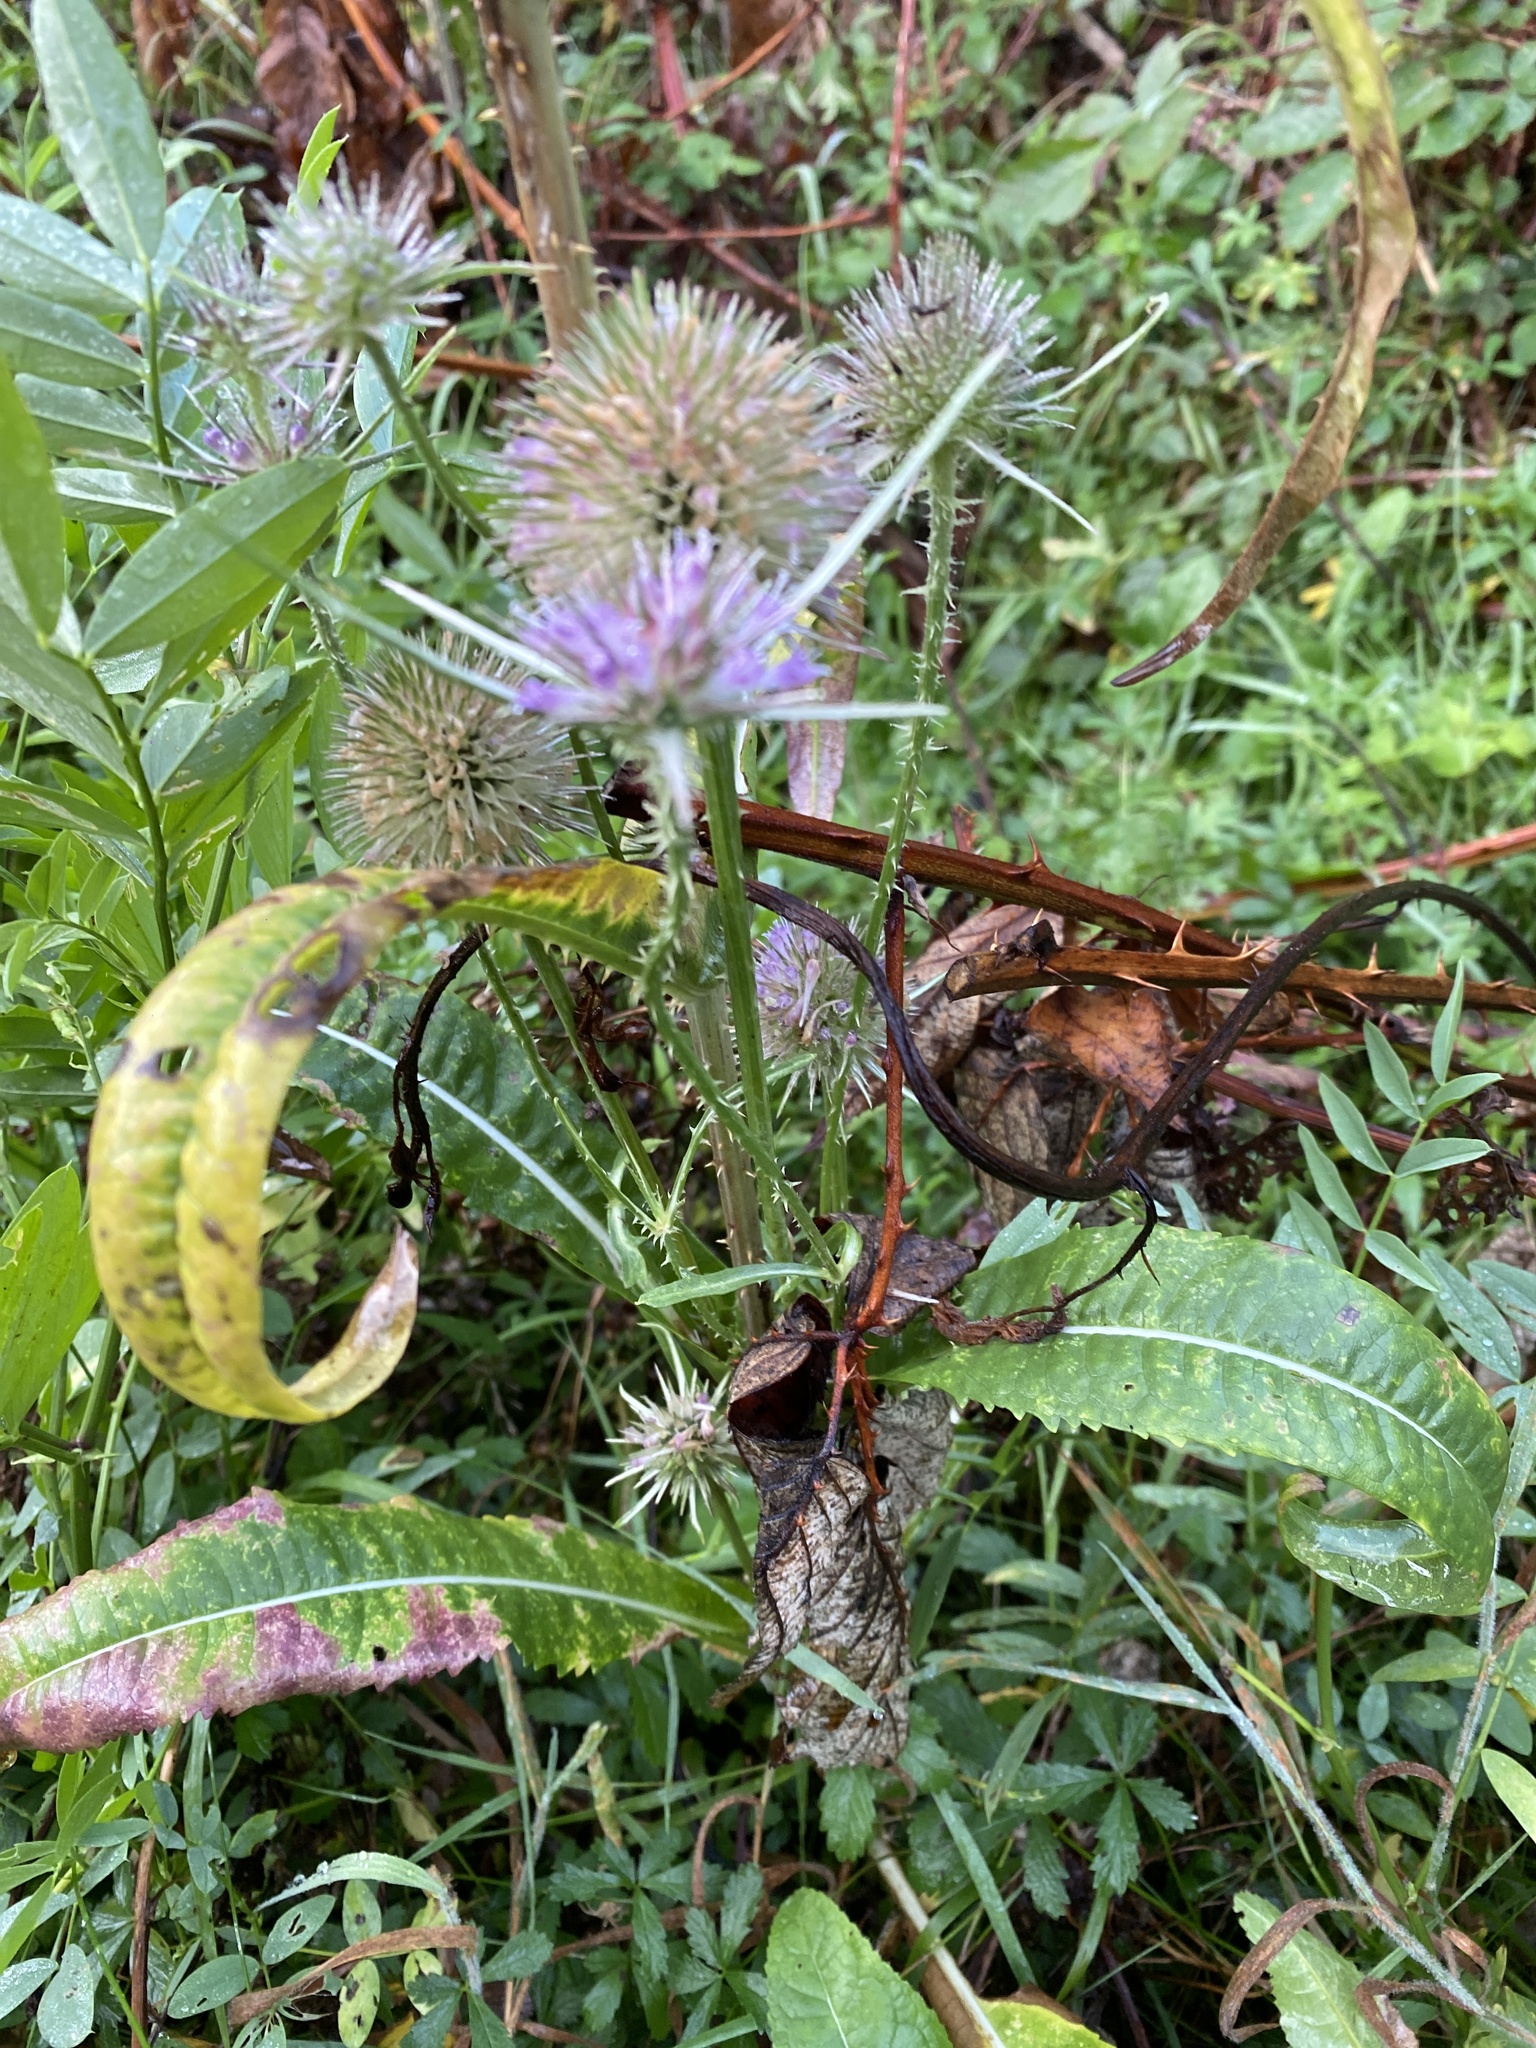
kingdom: Plantae
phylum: Tracheophyta
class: Magnoliopsida
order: Dipsacales
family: Caprifoliaceae
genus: Dipsacus
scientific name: Dipsacus fullonum
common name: Teasel
